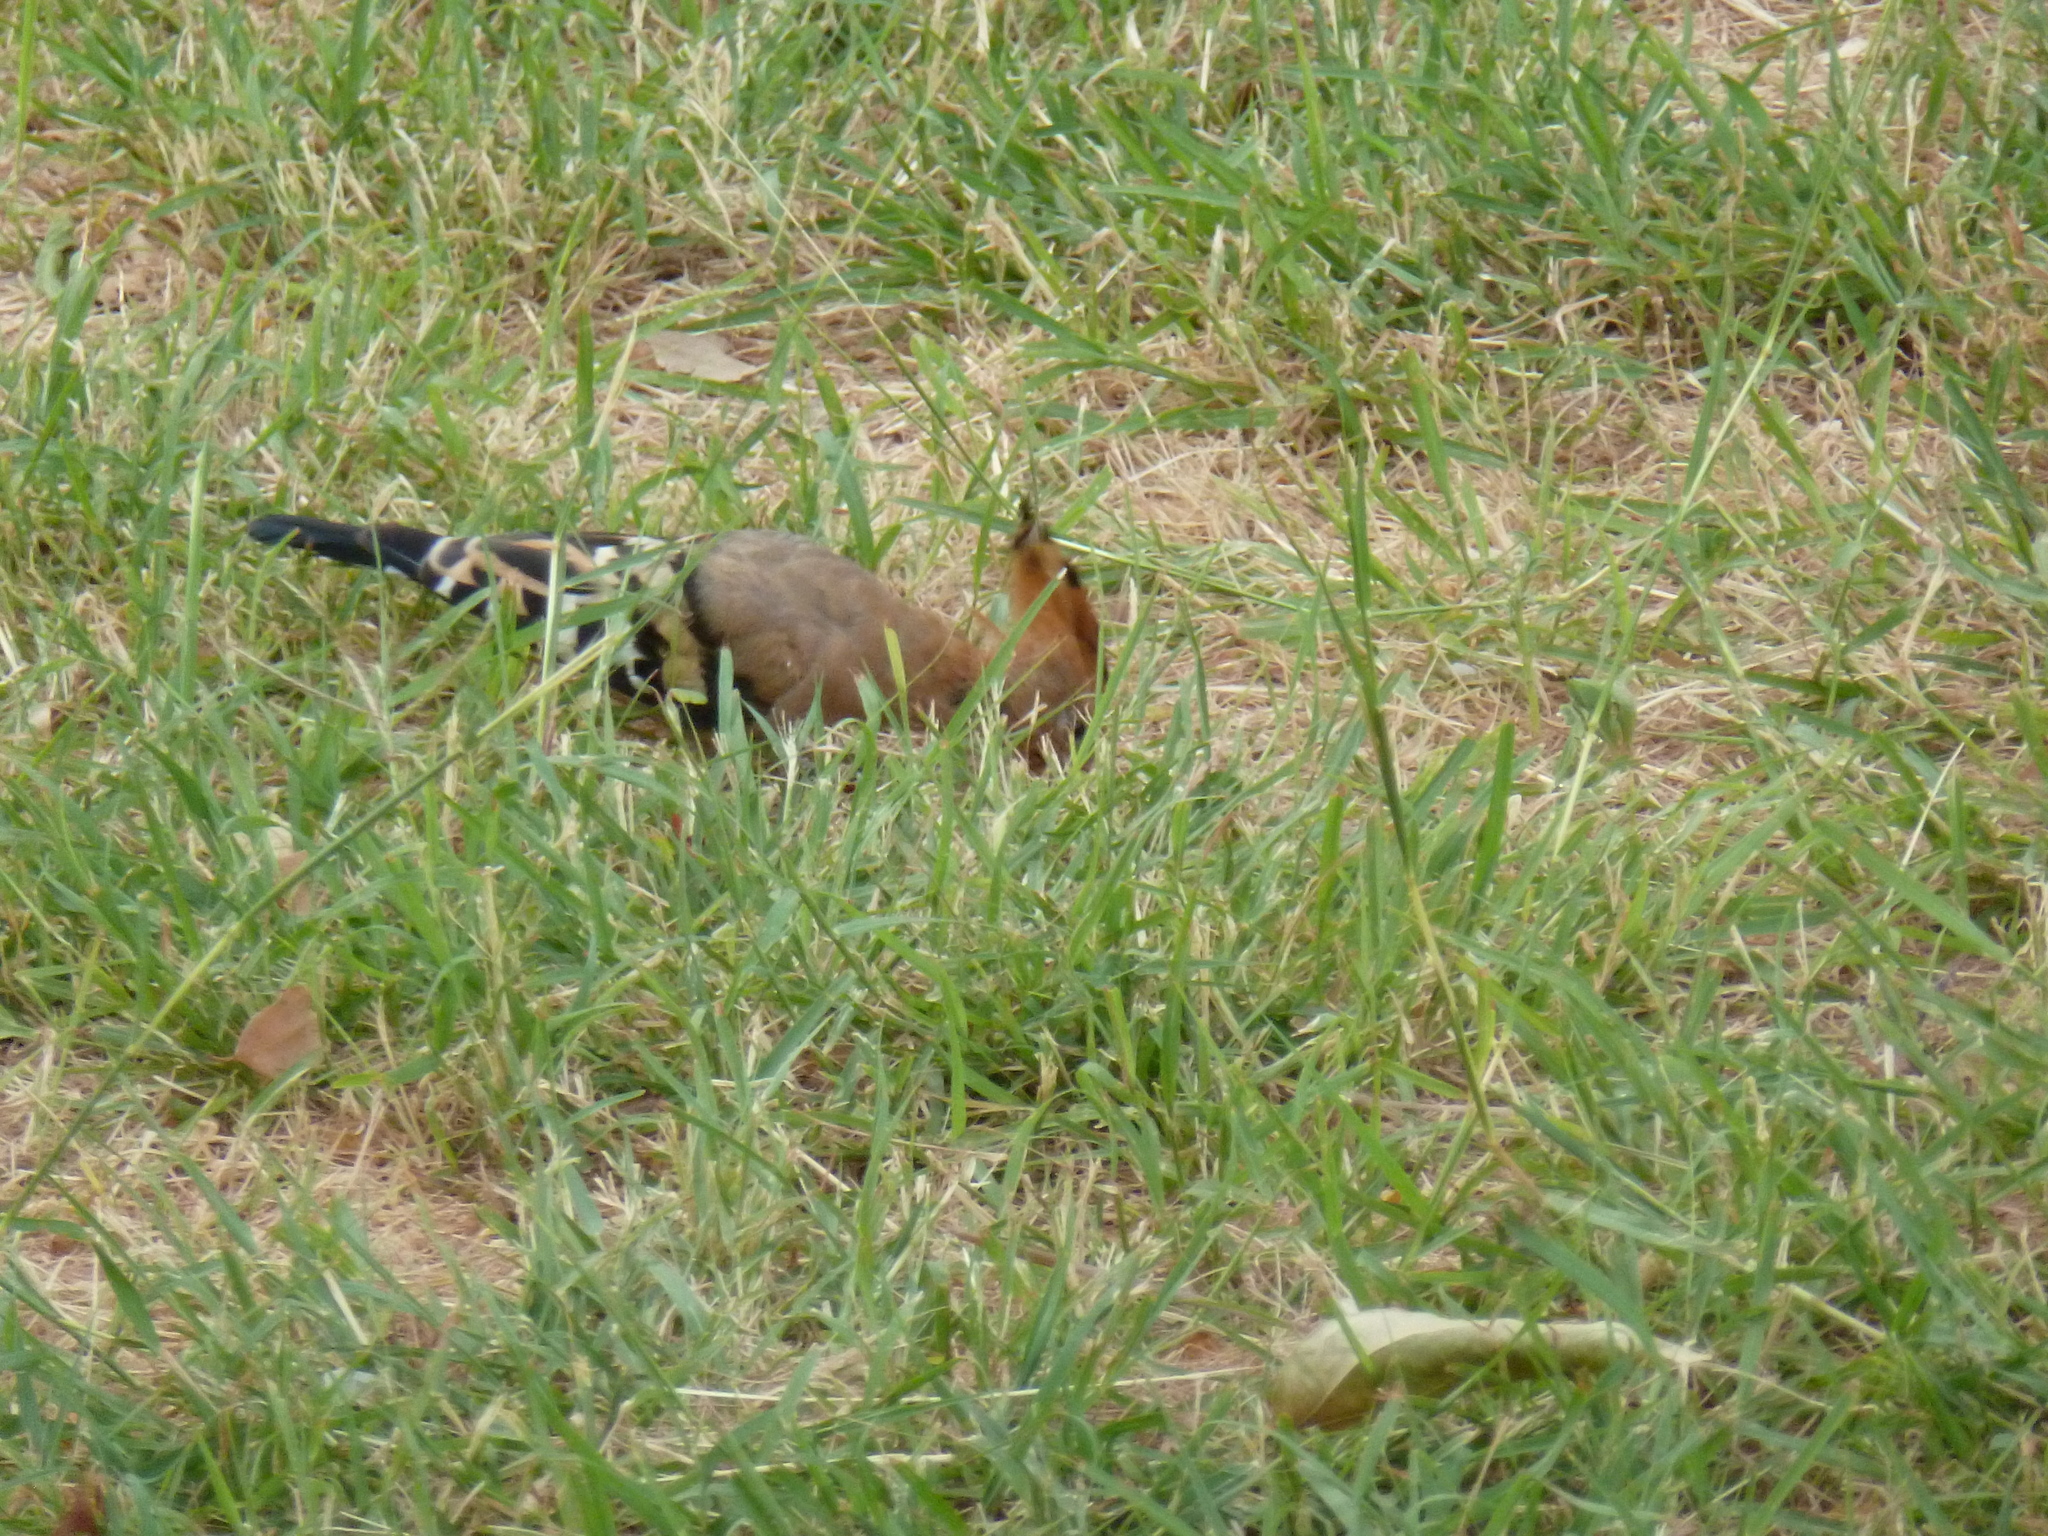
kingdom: Animalia
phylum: Chordata
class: Aves
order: Bucerotiformes
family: Upupidae
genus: Upupa
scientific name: Upupa epops
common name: Eurasian hoopoe
